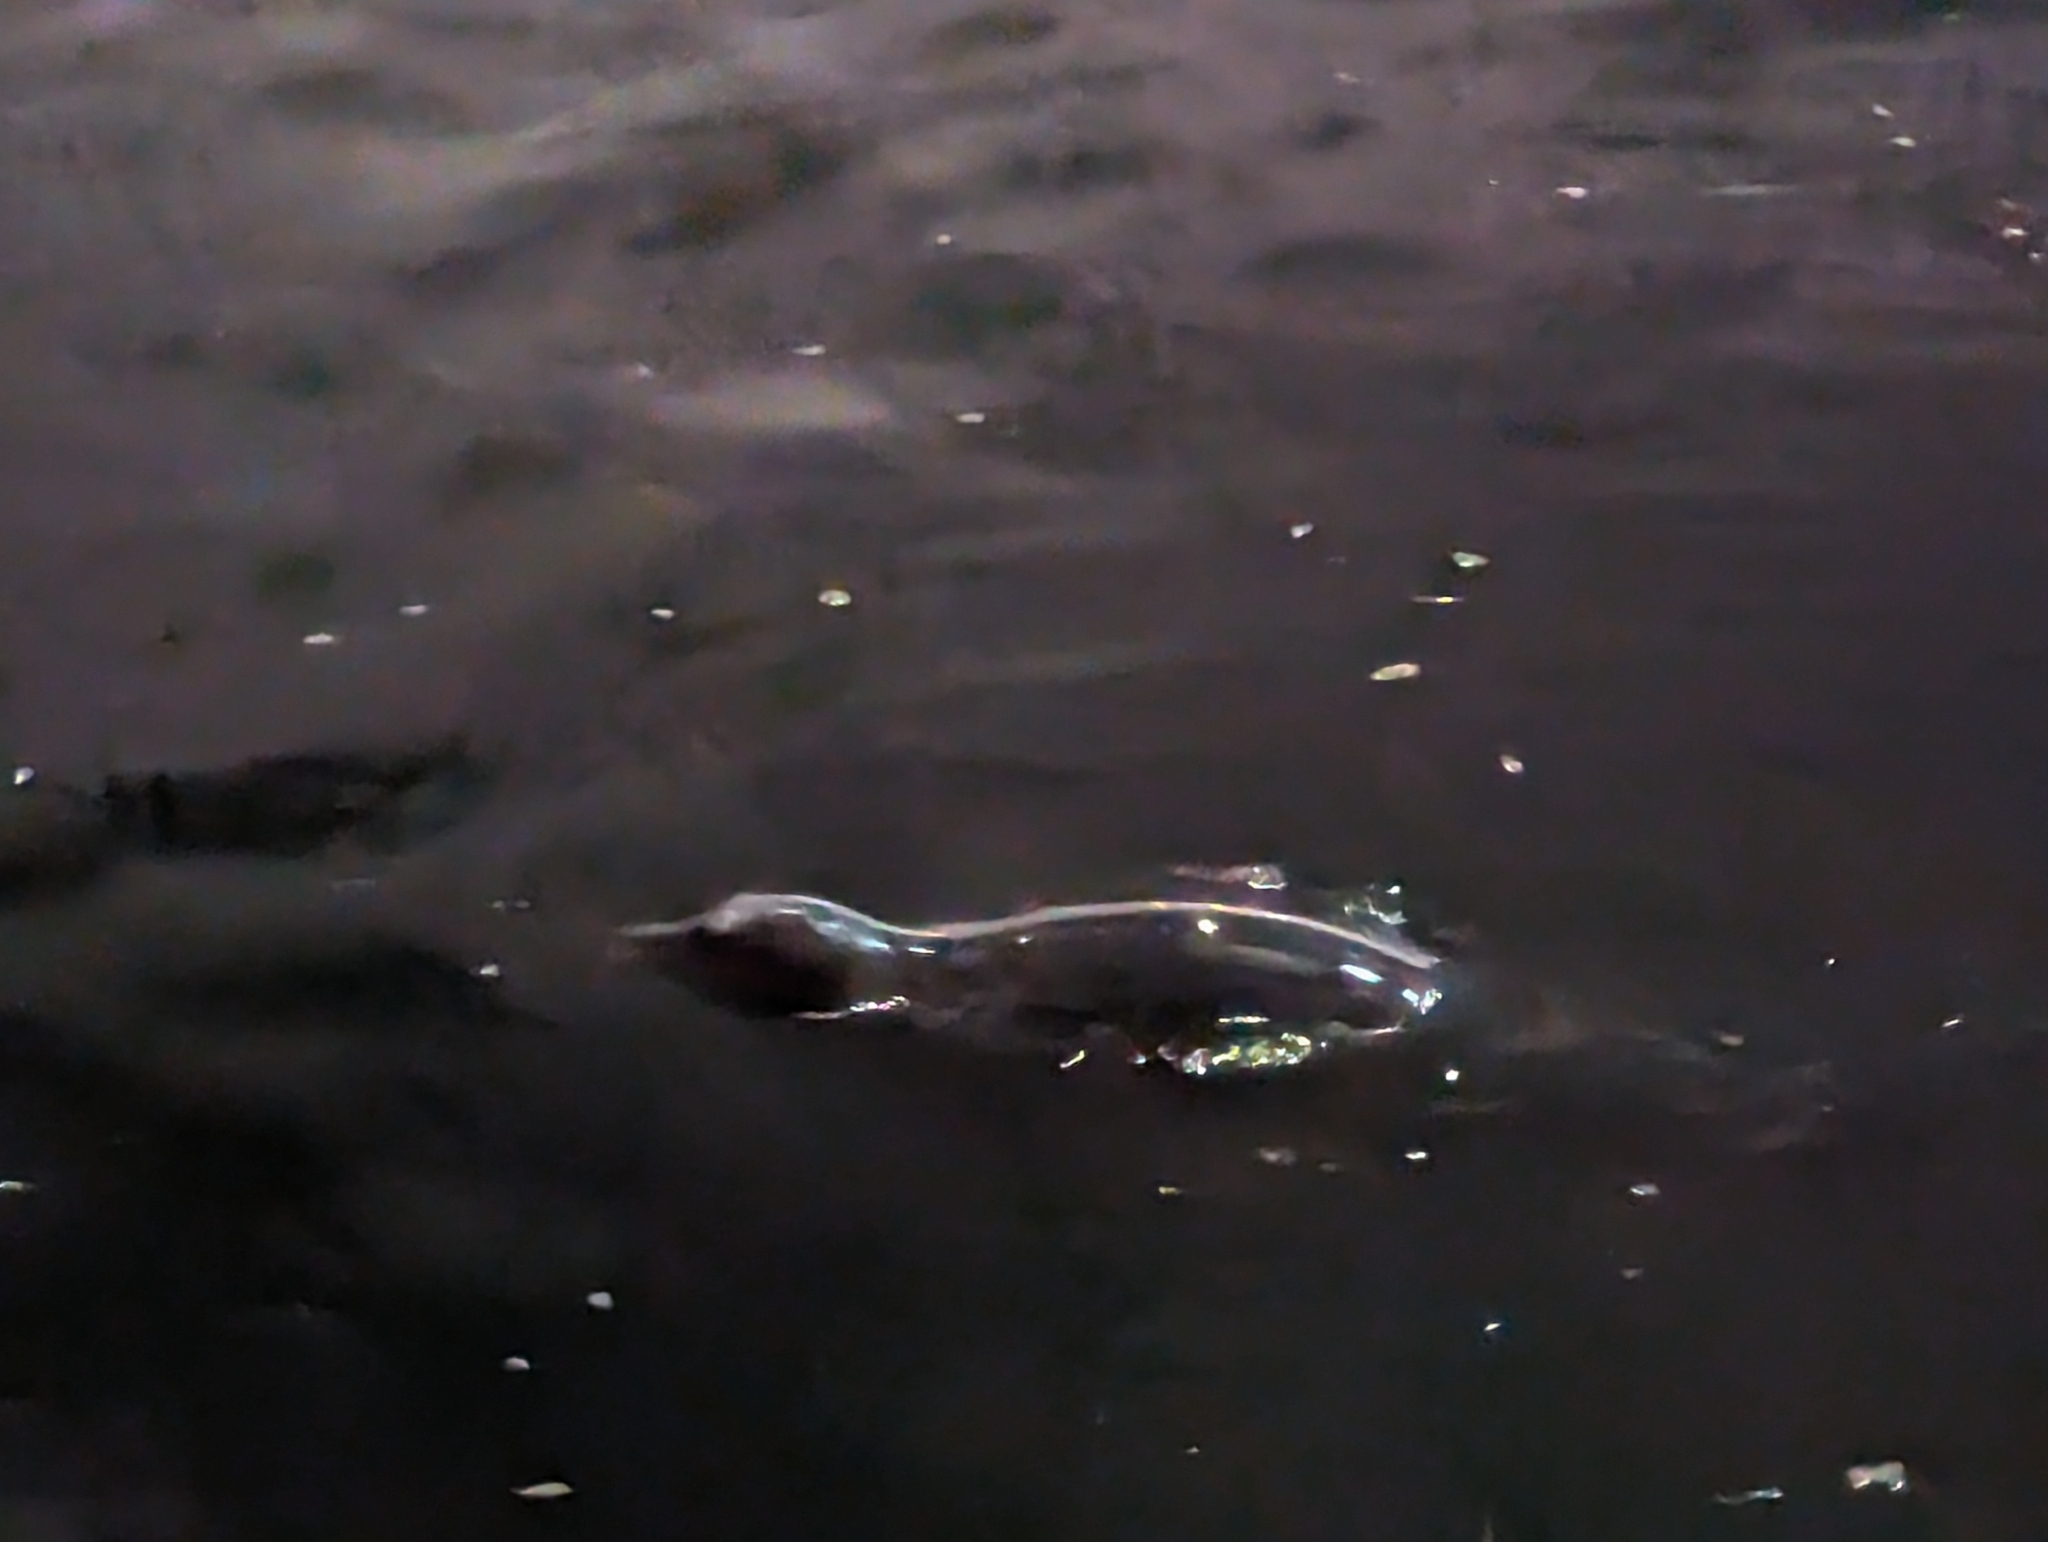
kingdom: Animalia
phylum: Chordata
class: Mammalia
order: Carnivora
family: Phocidae
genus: Phoca
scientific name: Phoca vitulina
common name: Harbor seal
